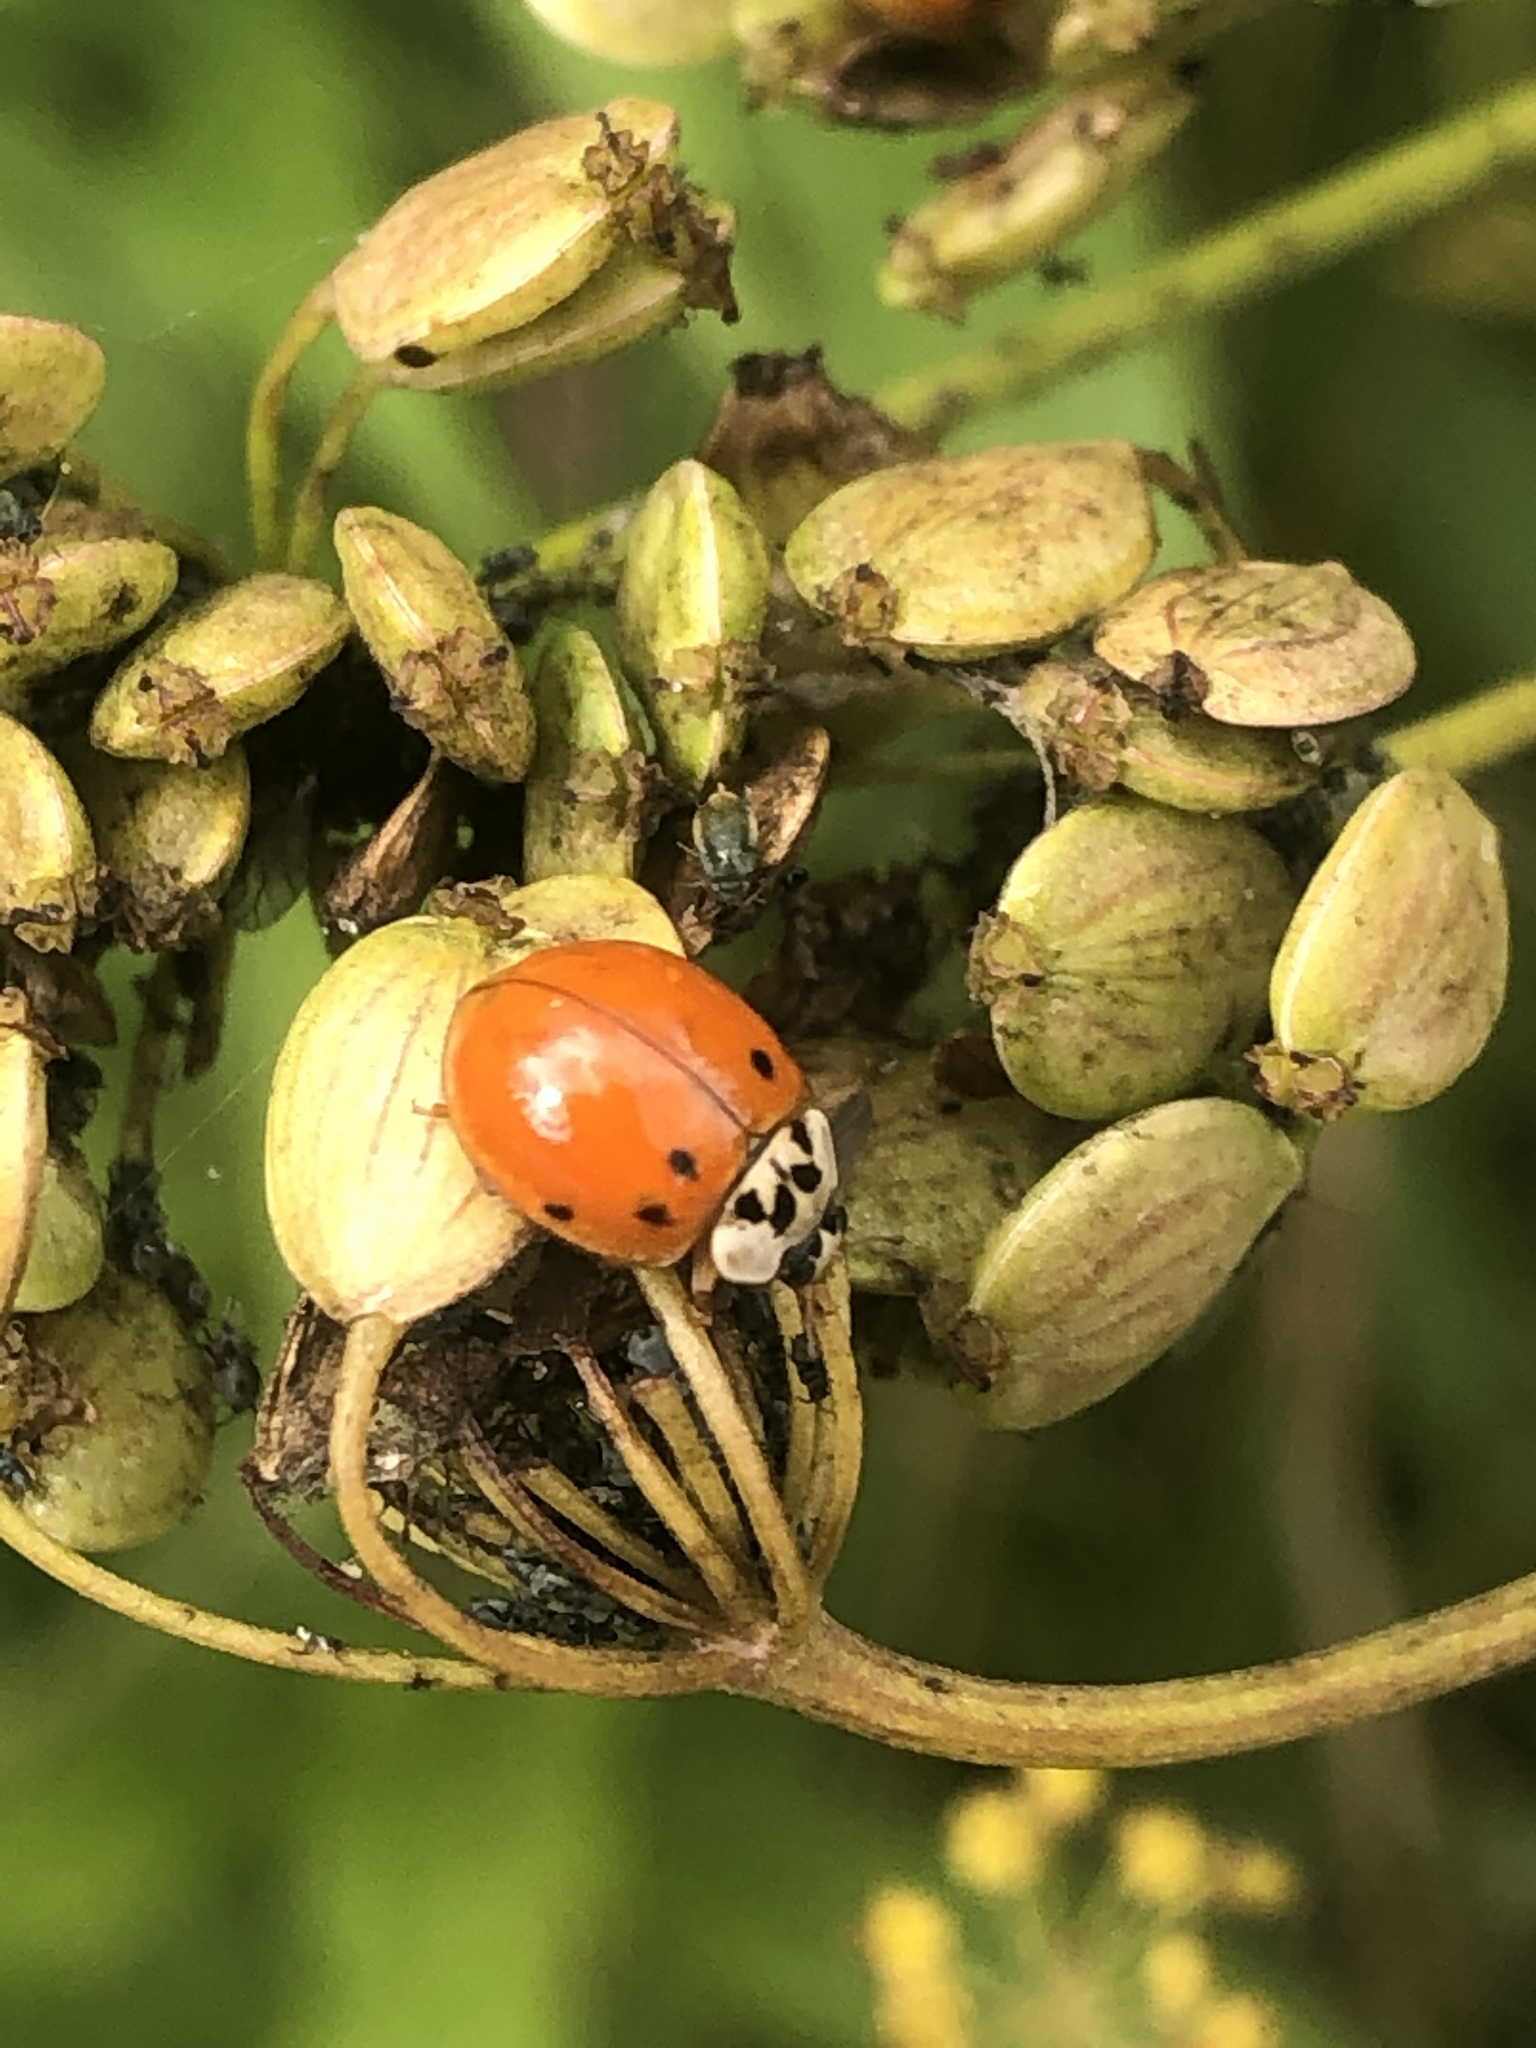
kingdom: Animalia
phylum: Arthropoda
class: Insecta
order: Coleoptera
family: Coccinellidae
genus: Harmonia
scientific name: Harmonia axyridis
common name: Harlequin ladybird
